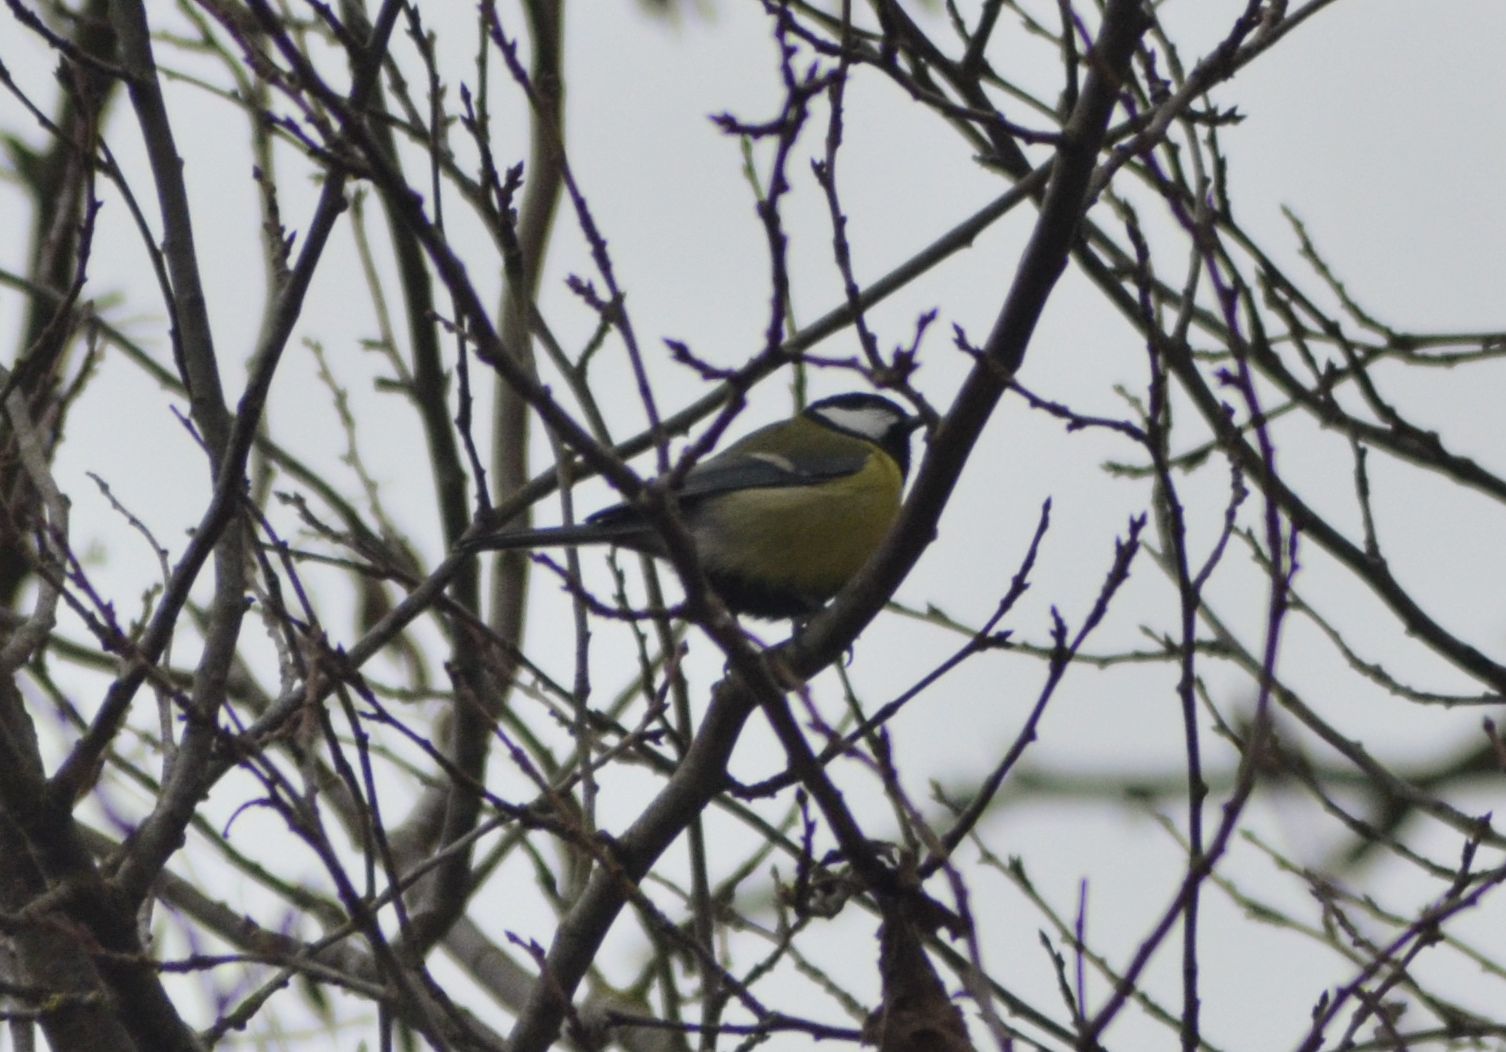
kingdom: Animalia
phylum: Chordata
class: Aves
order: Passeriformes
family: Paridae
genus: Parus
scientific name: Parus major
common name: Great tit
